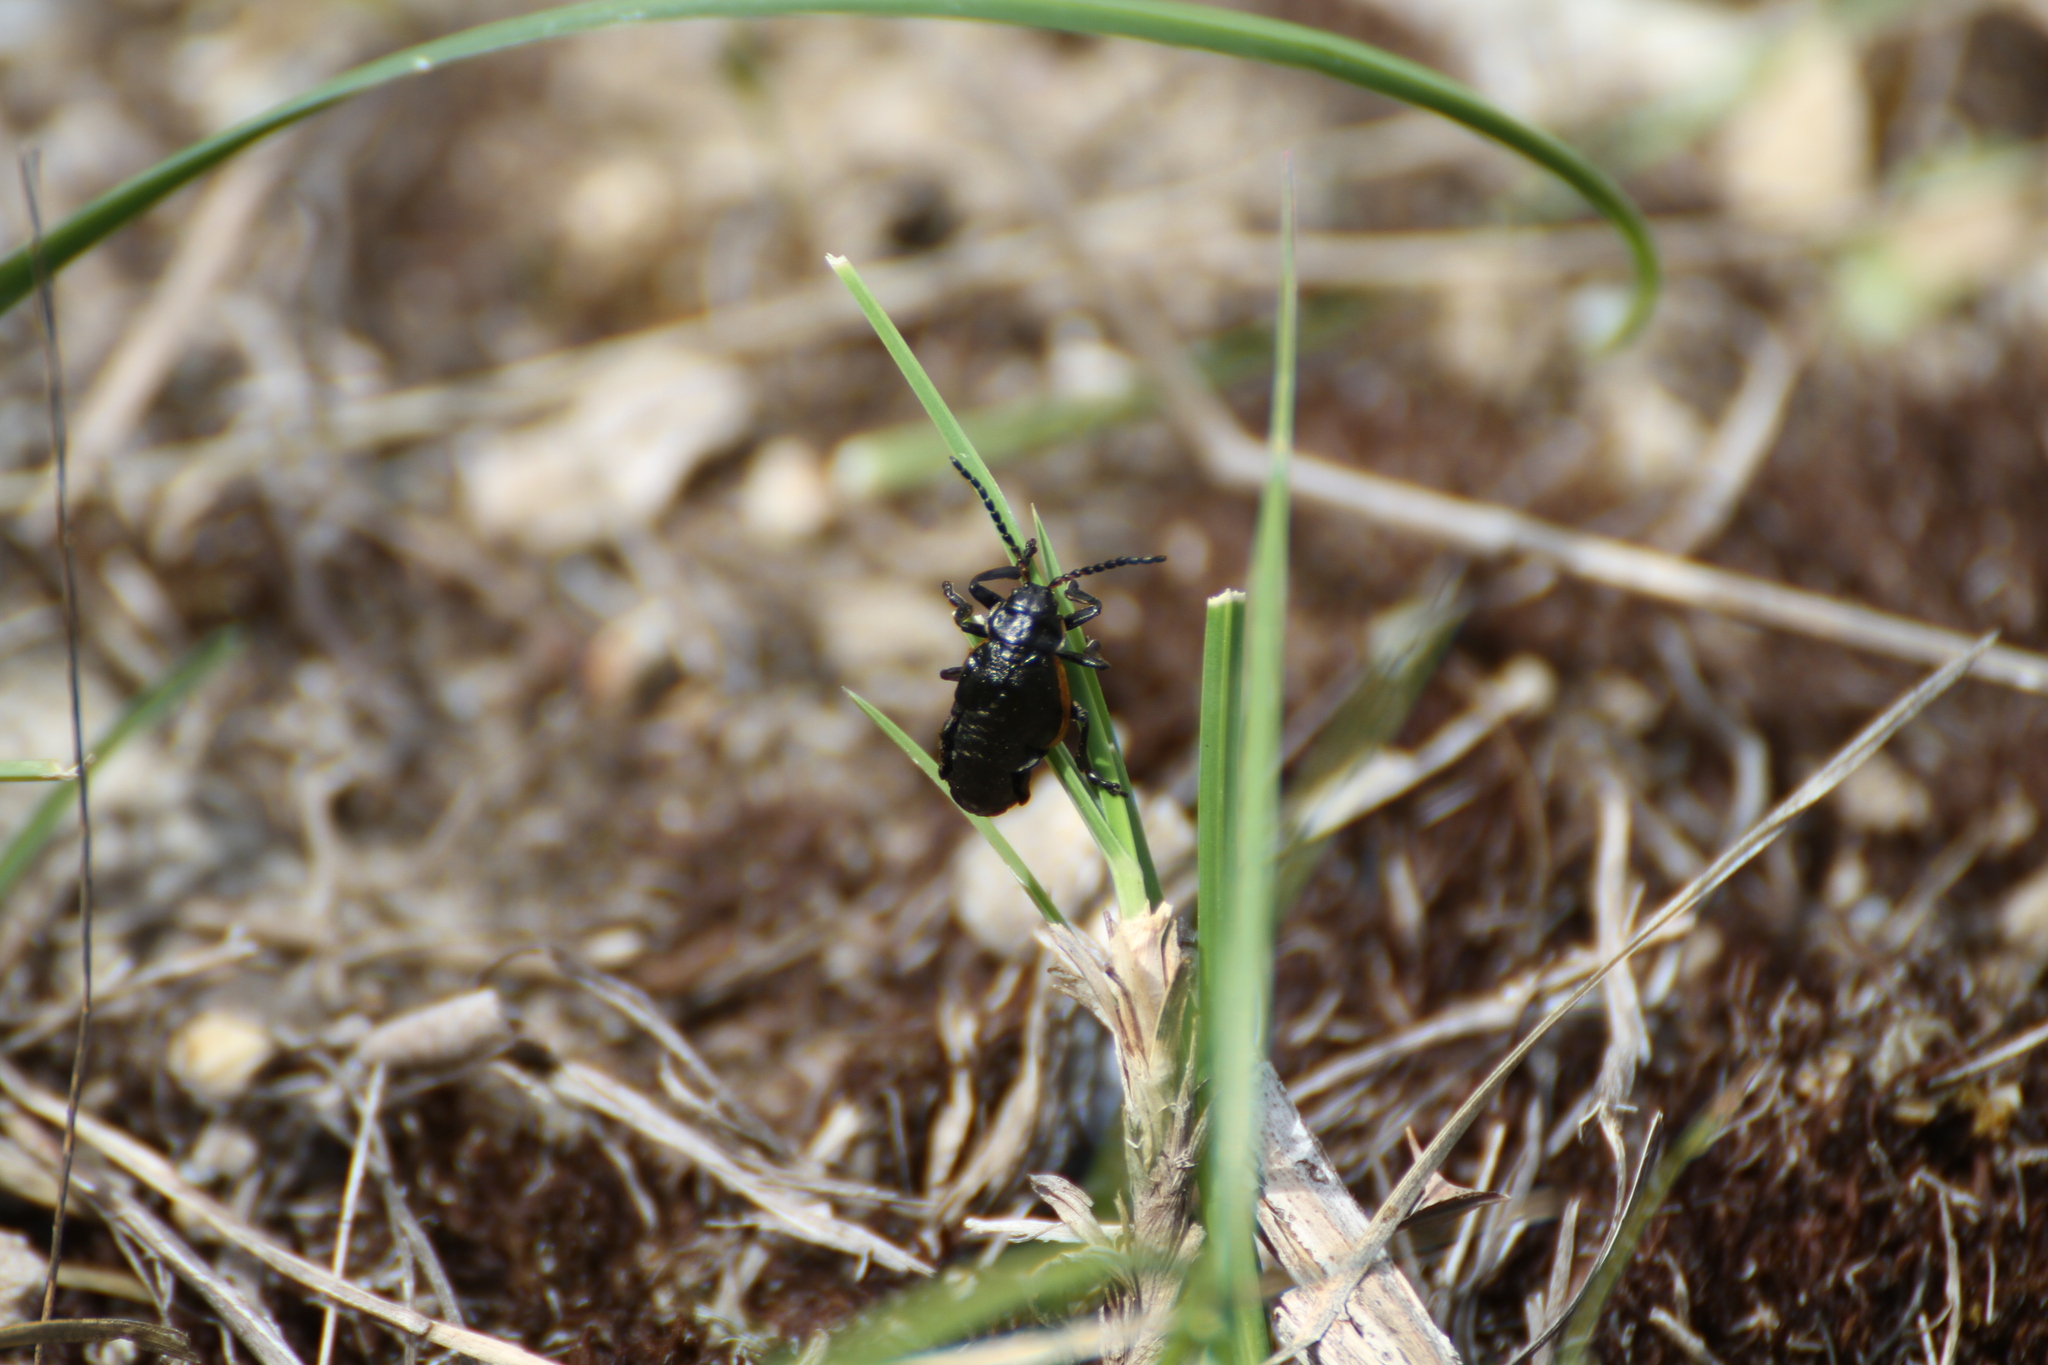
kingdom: Animalia
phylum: Arthropoda
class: Insecta
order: Coleoptera
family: Chrysomelidae
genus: Arima
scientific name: Arima marginata
